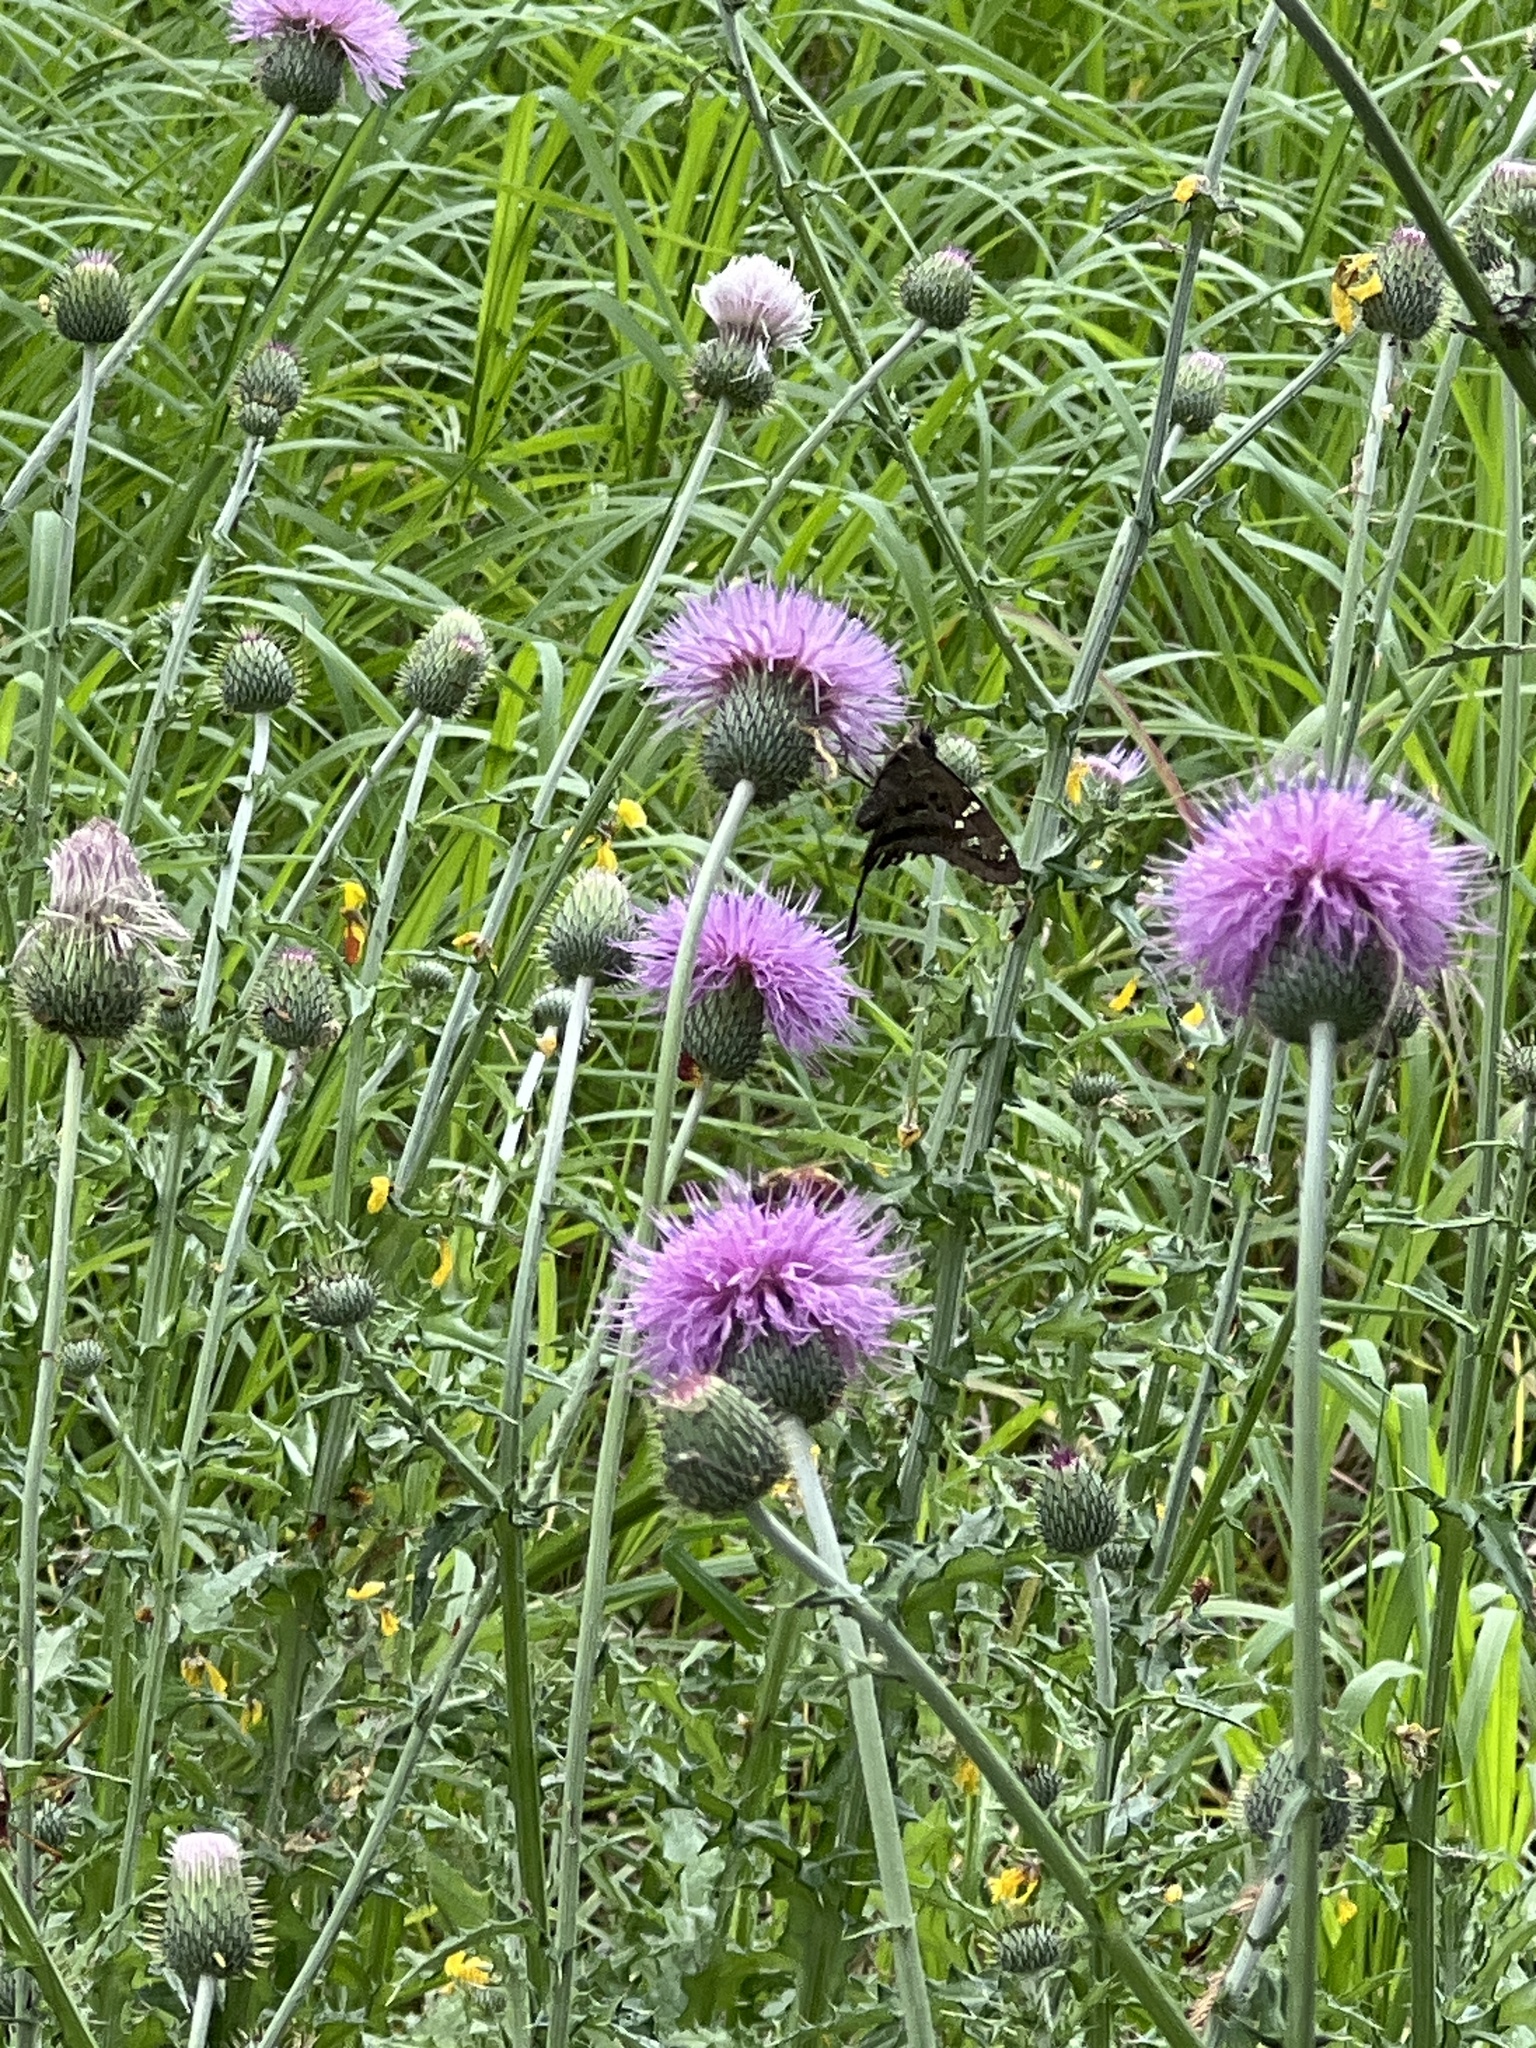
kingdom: Animalia
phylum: Arthropoda
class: Insecta
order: Lepidoptera
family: Hesperiidae
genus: Urbanus
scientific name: Urbanus proteus
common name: Long-tailed skipper
